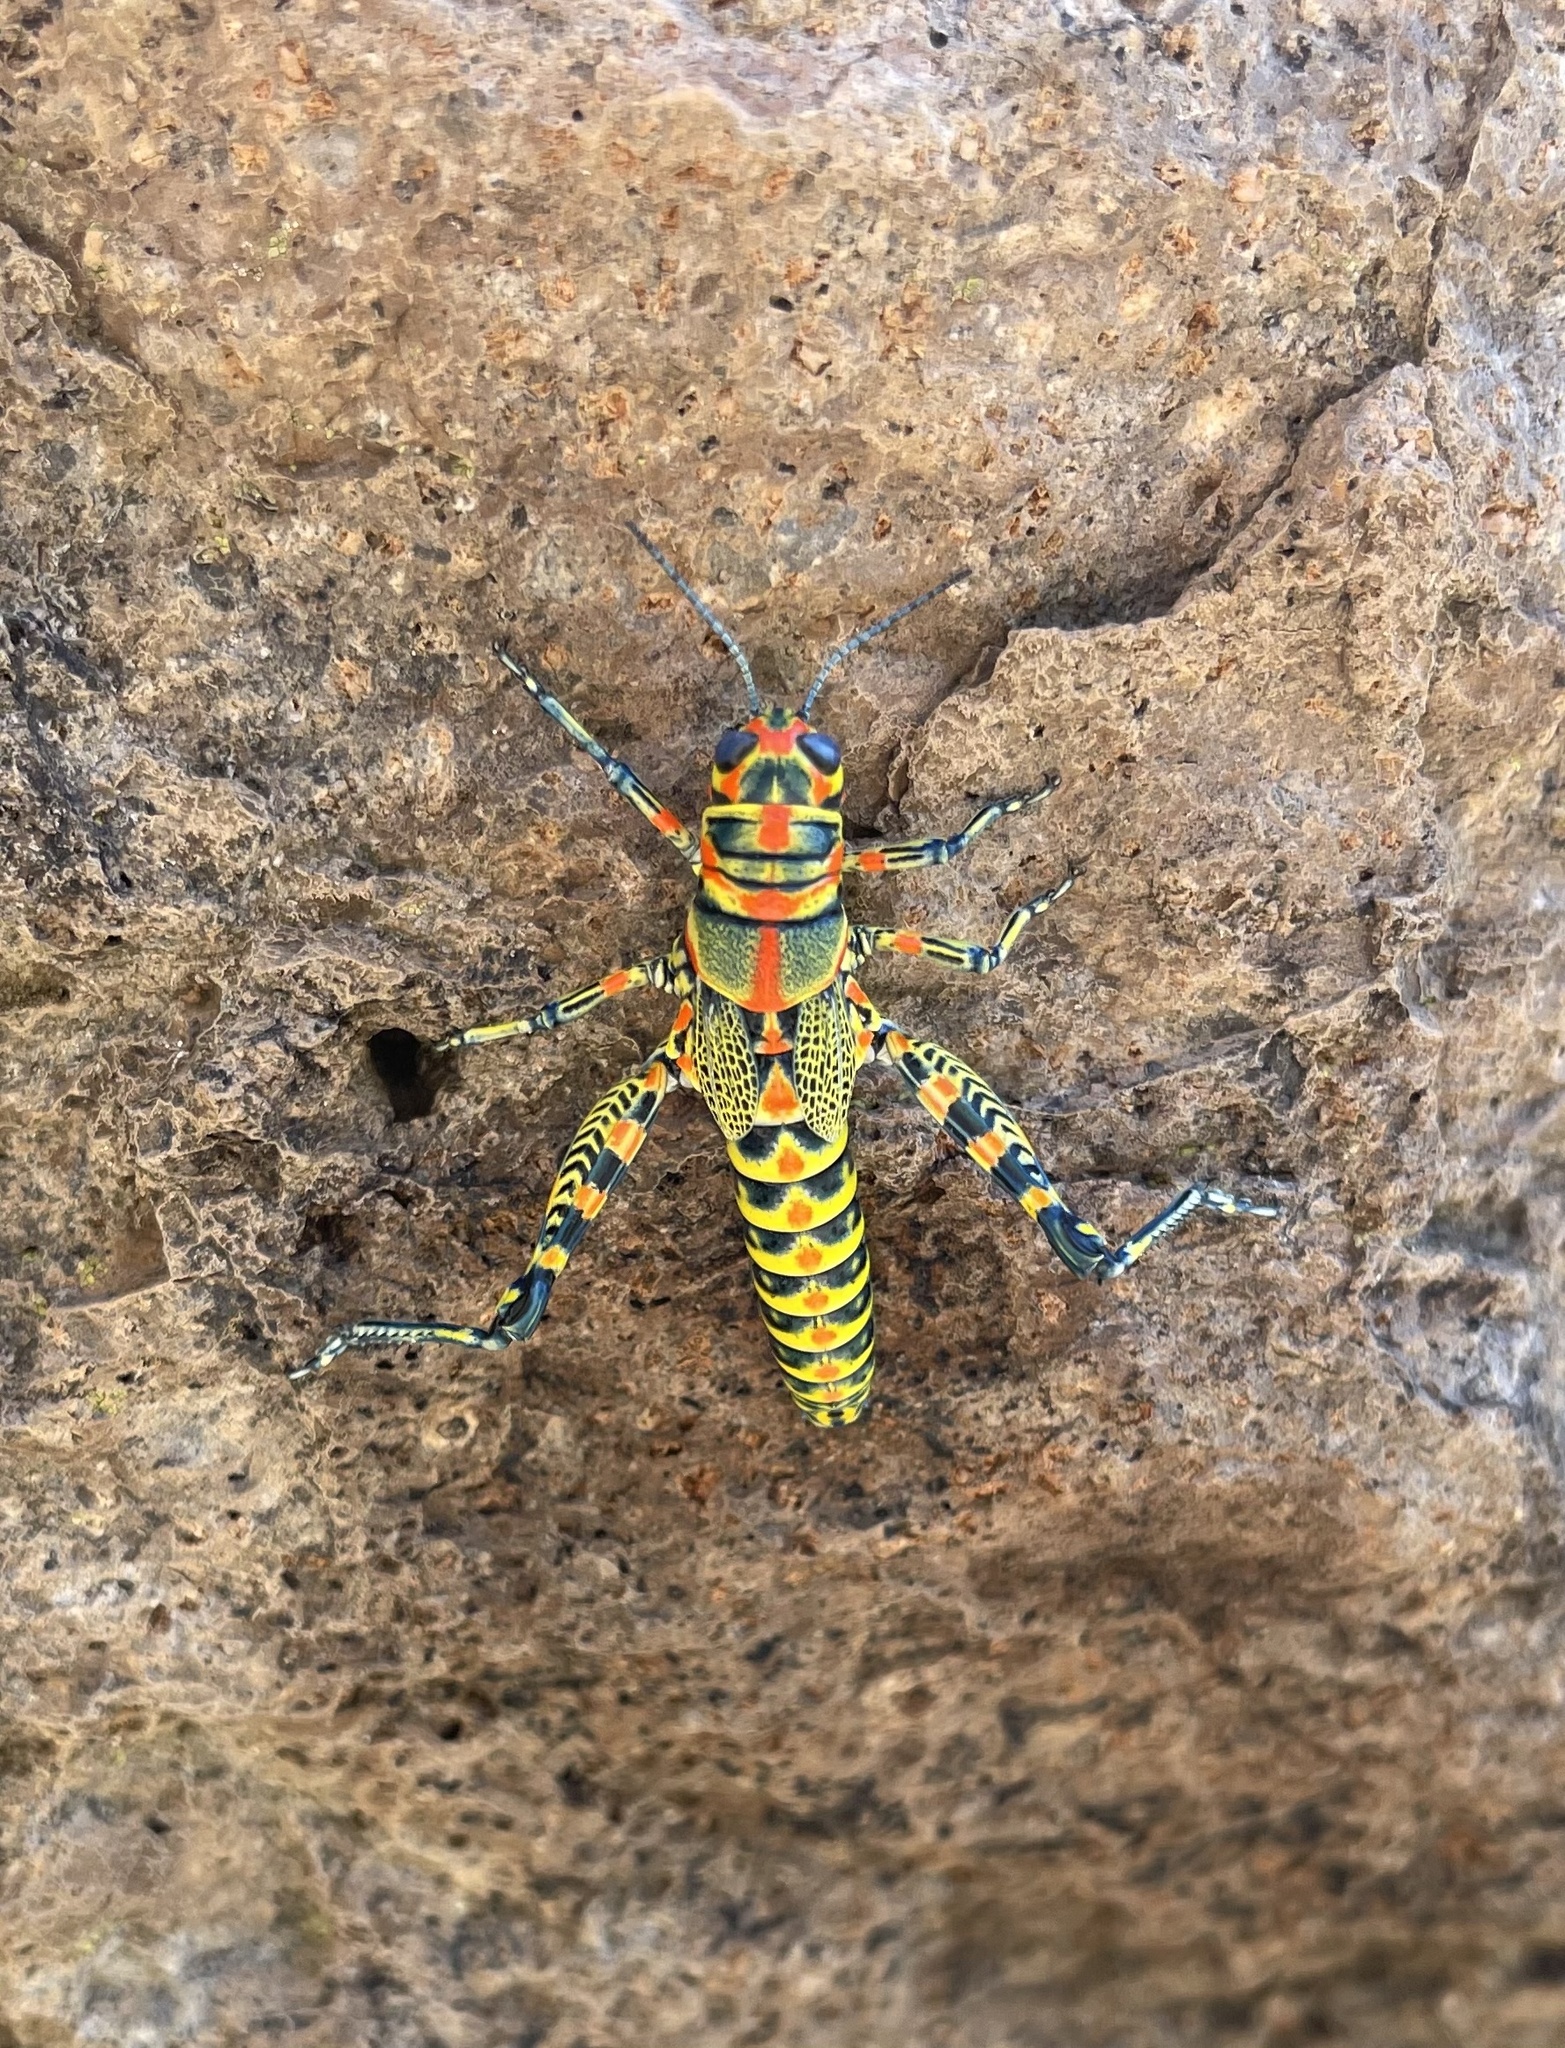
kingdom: Animalia
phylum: Arthropoda
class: Insecta
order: Orthoptera
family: Acrididae
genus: Dactylotum
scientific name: Dactylotum bicolor
